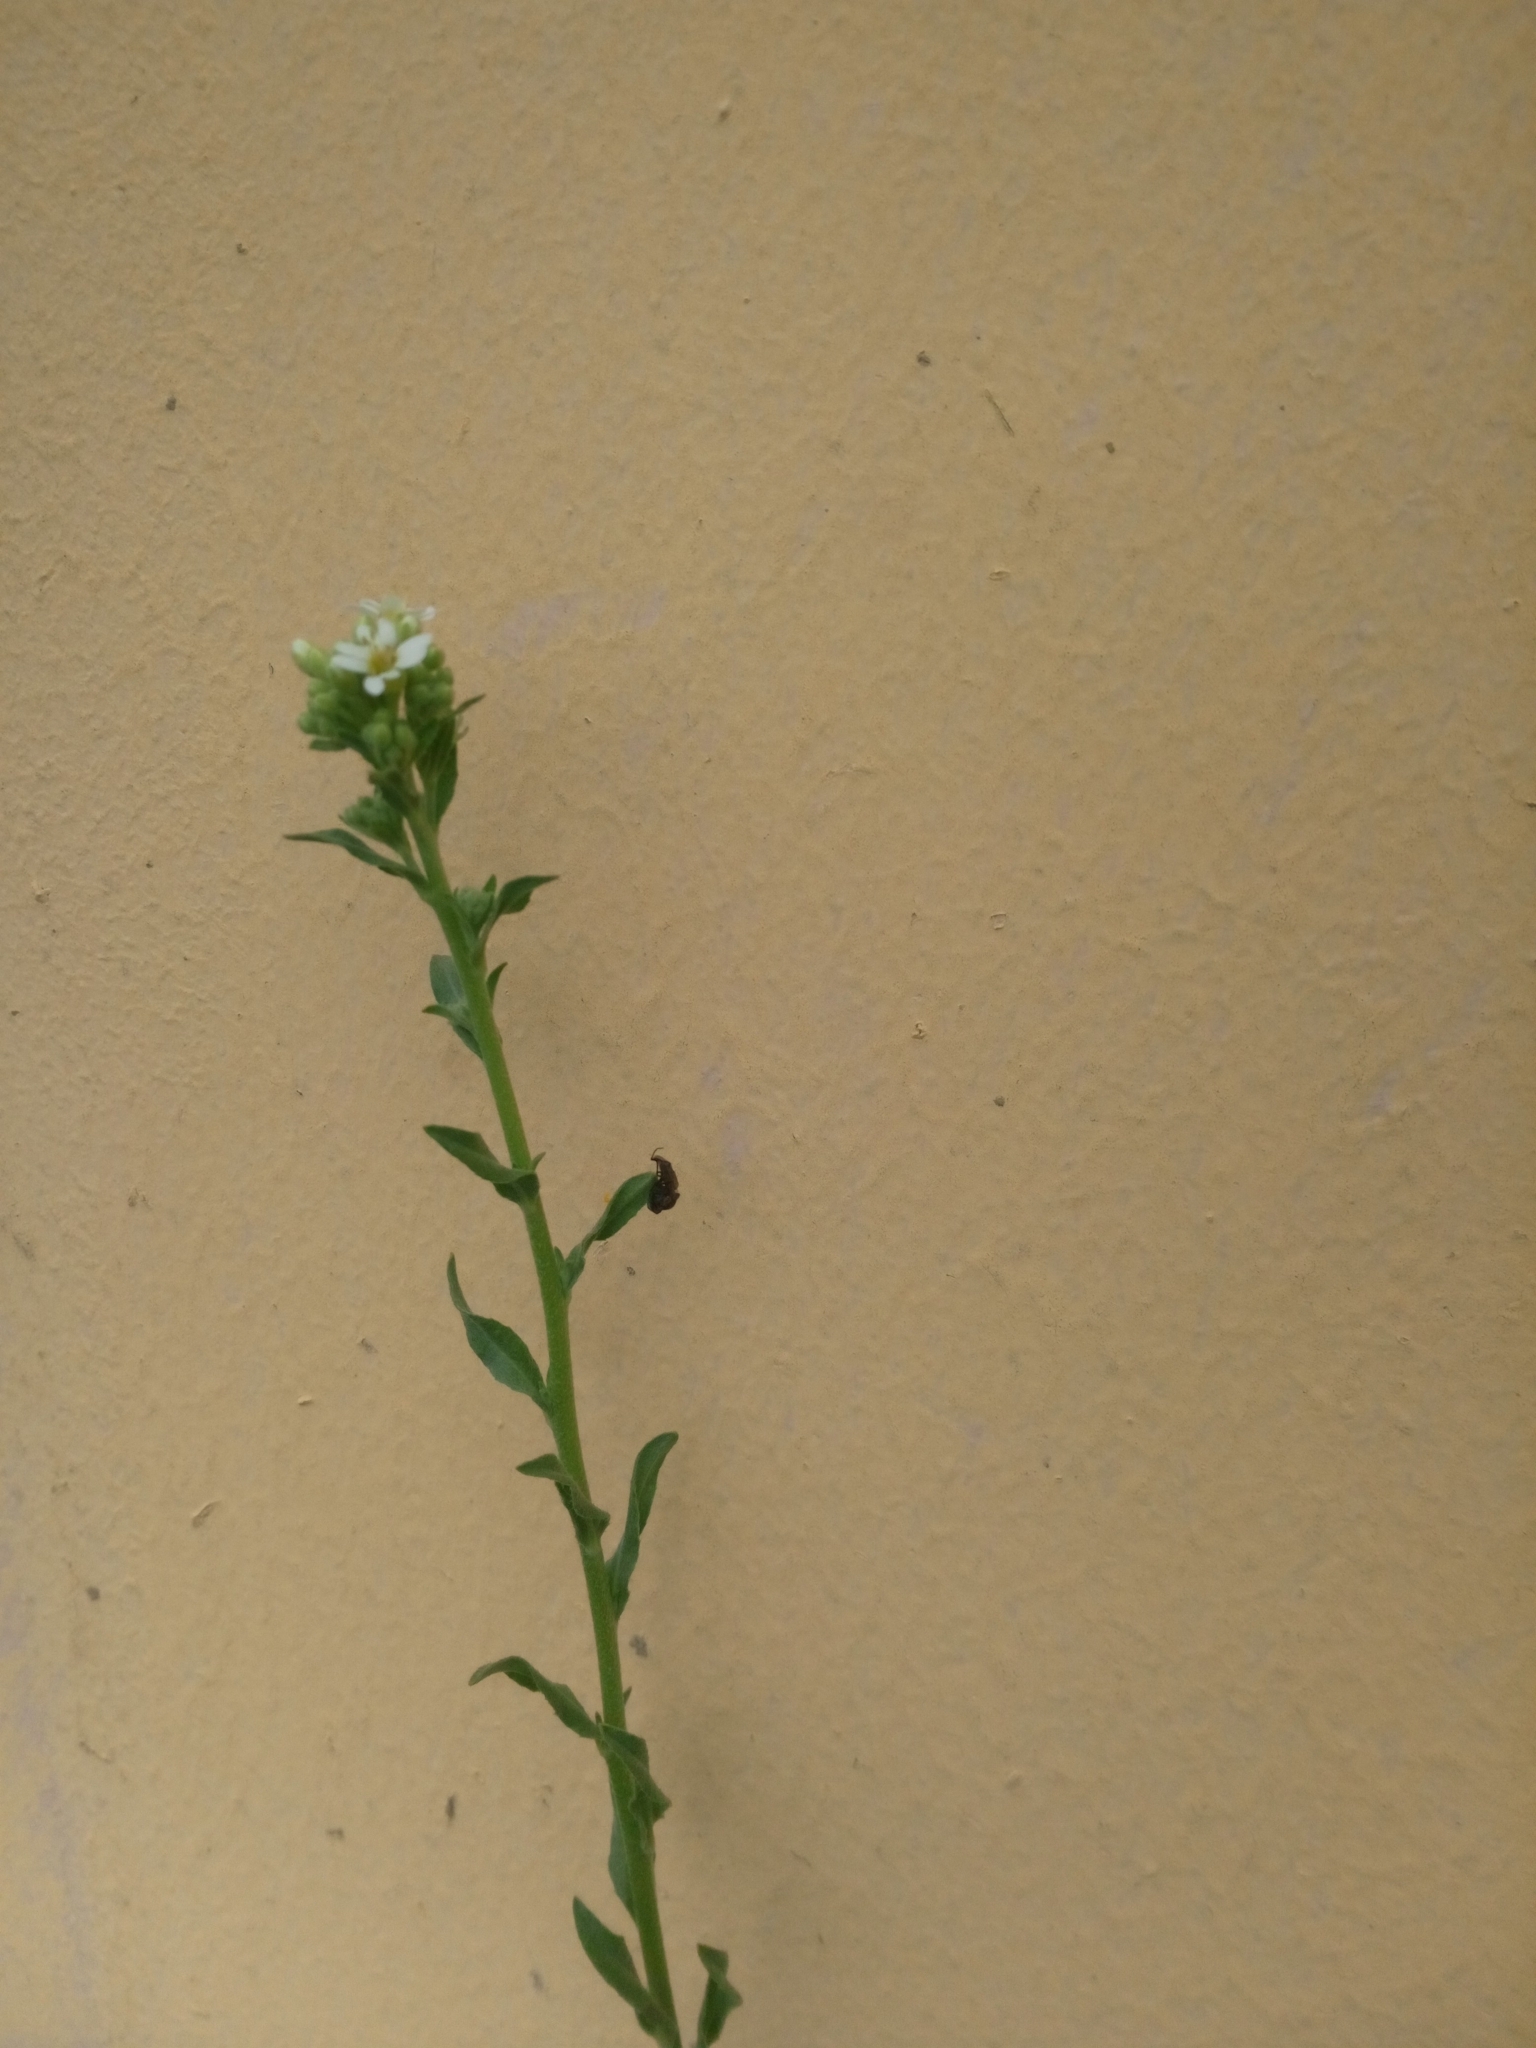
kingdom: Plantae
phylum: Tracheophyta
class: Magnoliopsida
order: Brassicales
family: Brassicaceae
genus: Berteroa
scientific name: Berteroa incana
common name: Hoary alison
